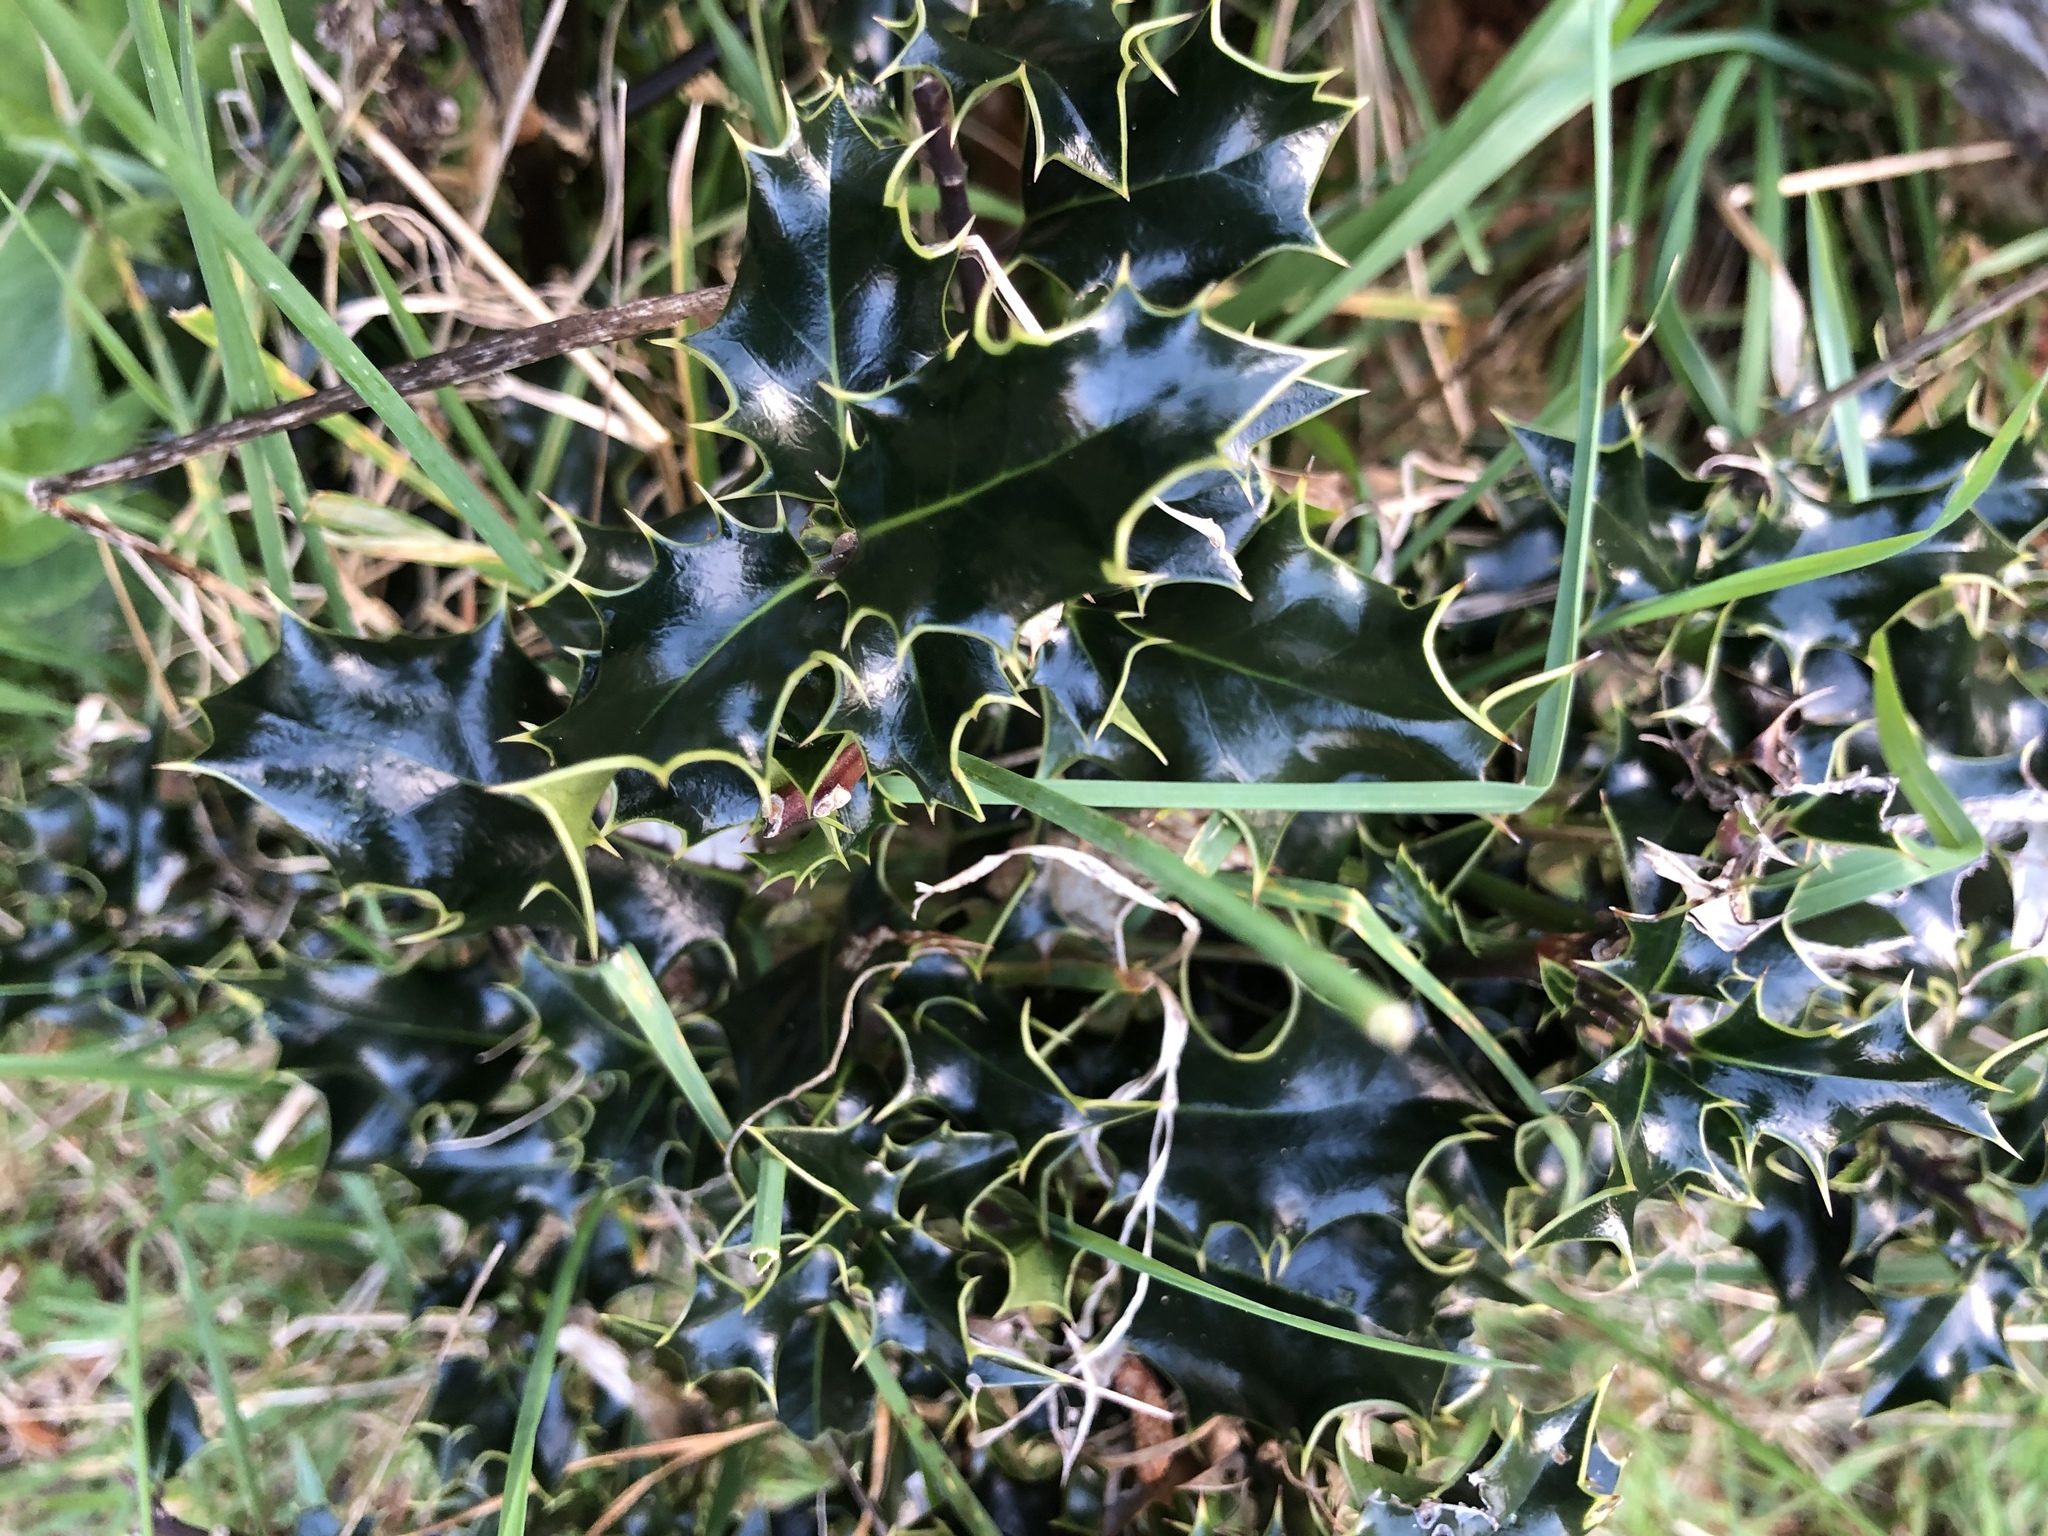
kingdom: Plantae
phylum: Tracheophyta
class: Magnoliopsida
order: Aquifoliales
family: Aquifoliaceae
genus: Ilex
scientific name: Ilex aquifolium
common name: English holly
